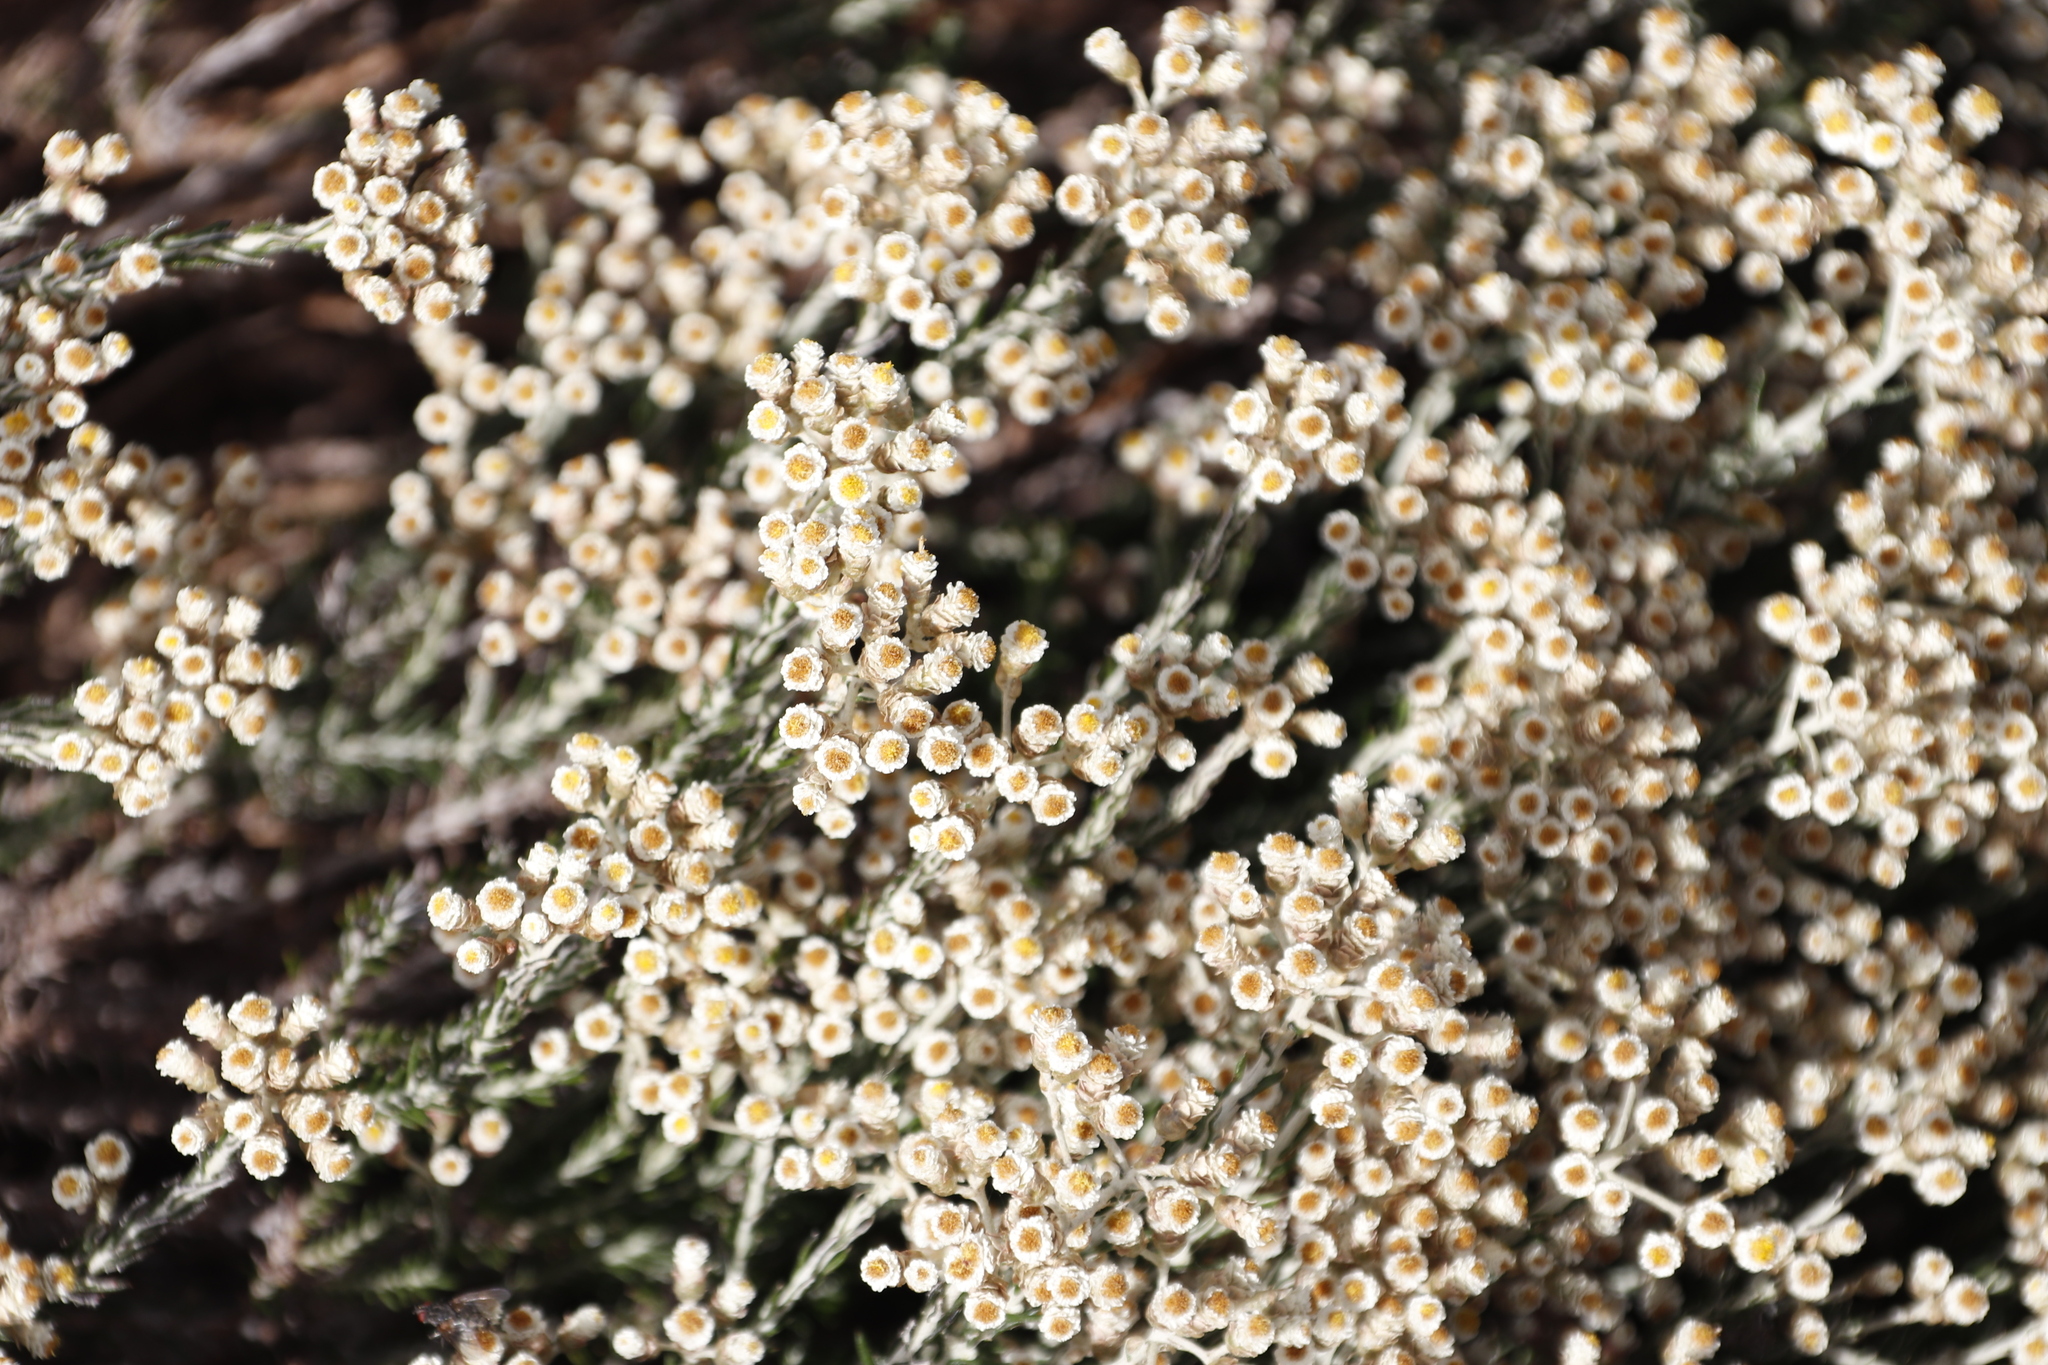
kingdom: Plantae
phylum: Tracheophyta
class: Magnoliopsida
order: Asterales
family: Asteraceae
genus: Helichrysum
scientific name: Helichrysum teretifolium
